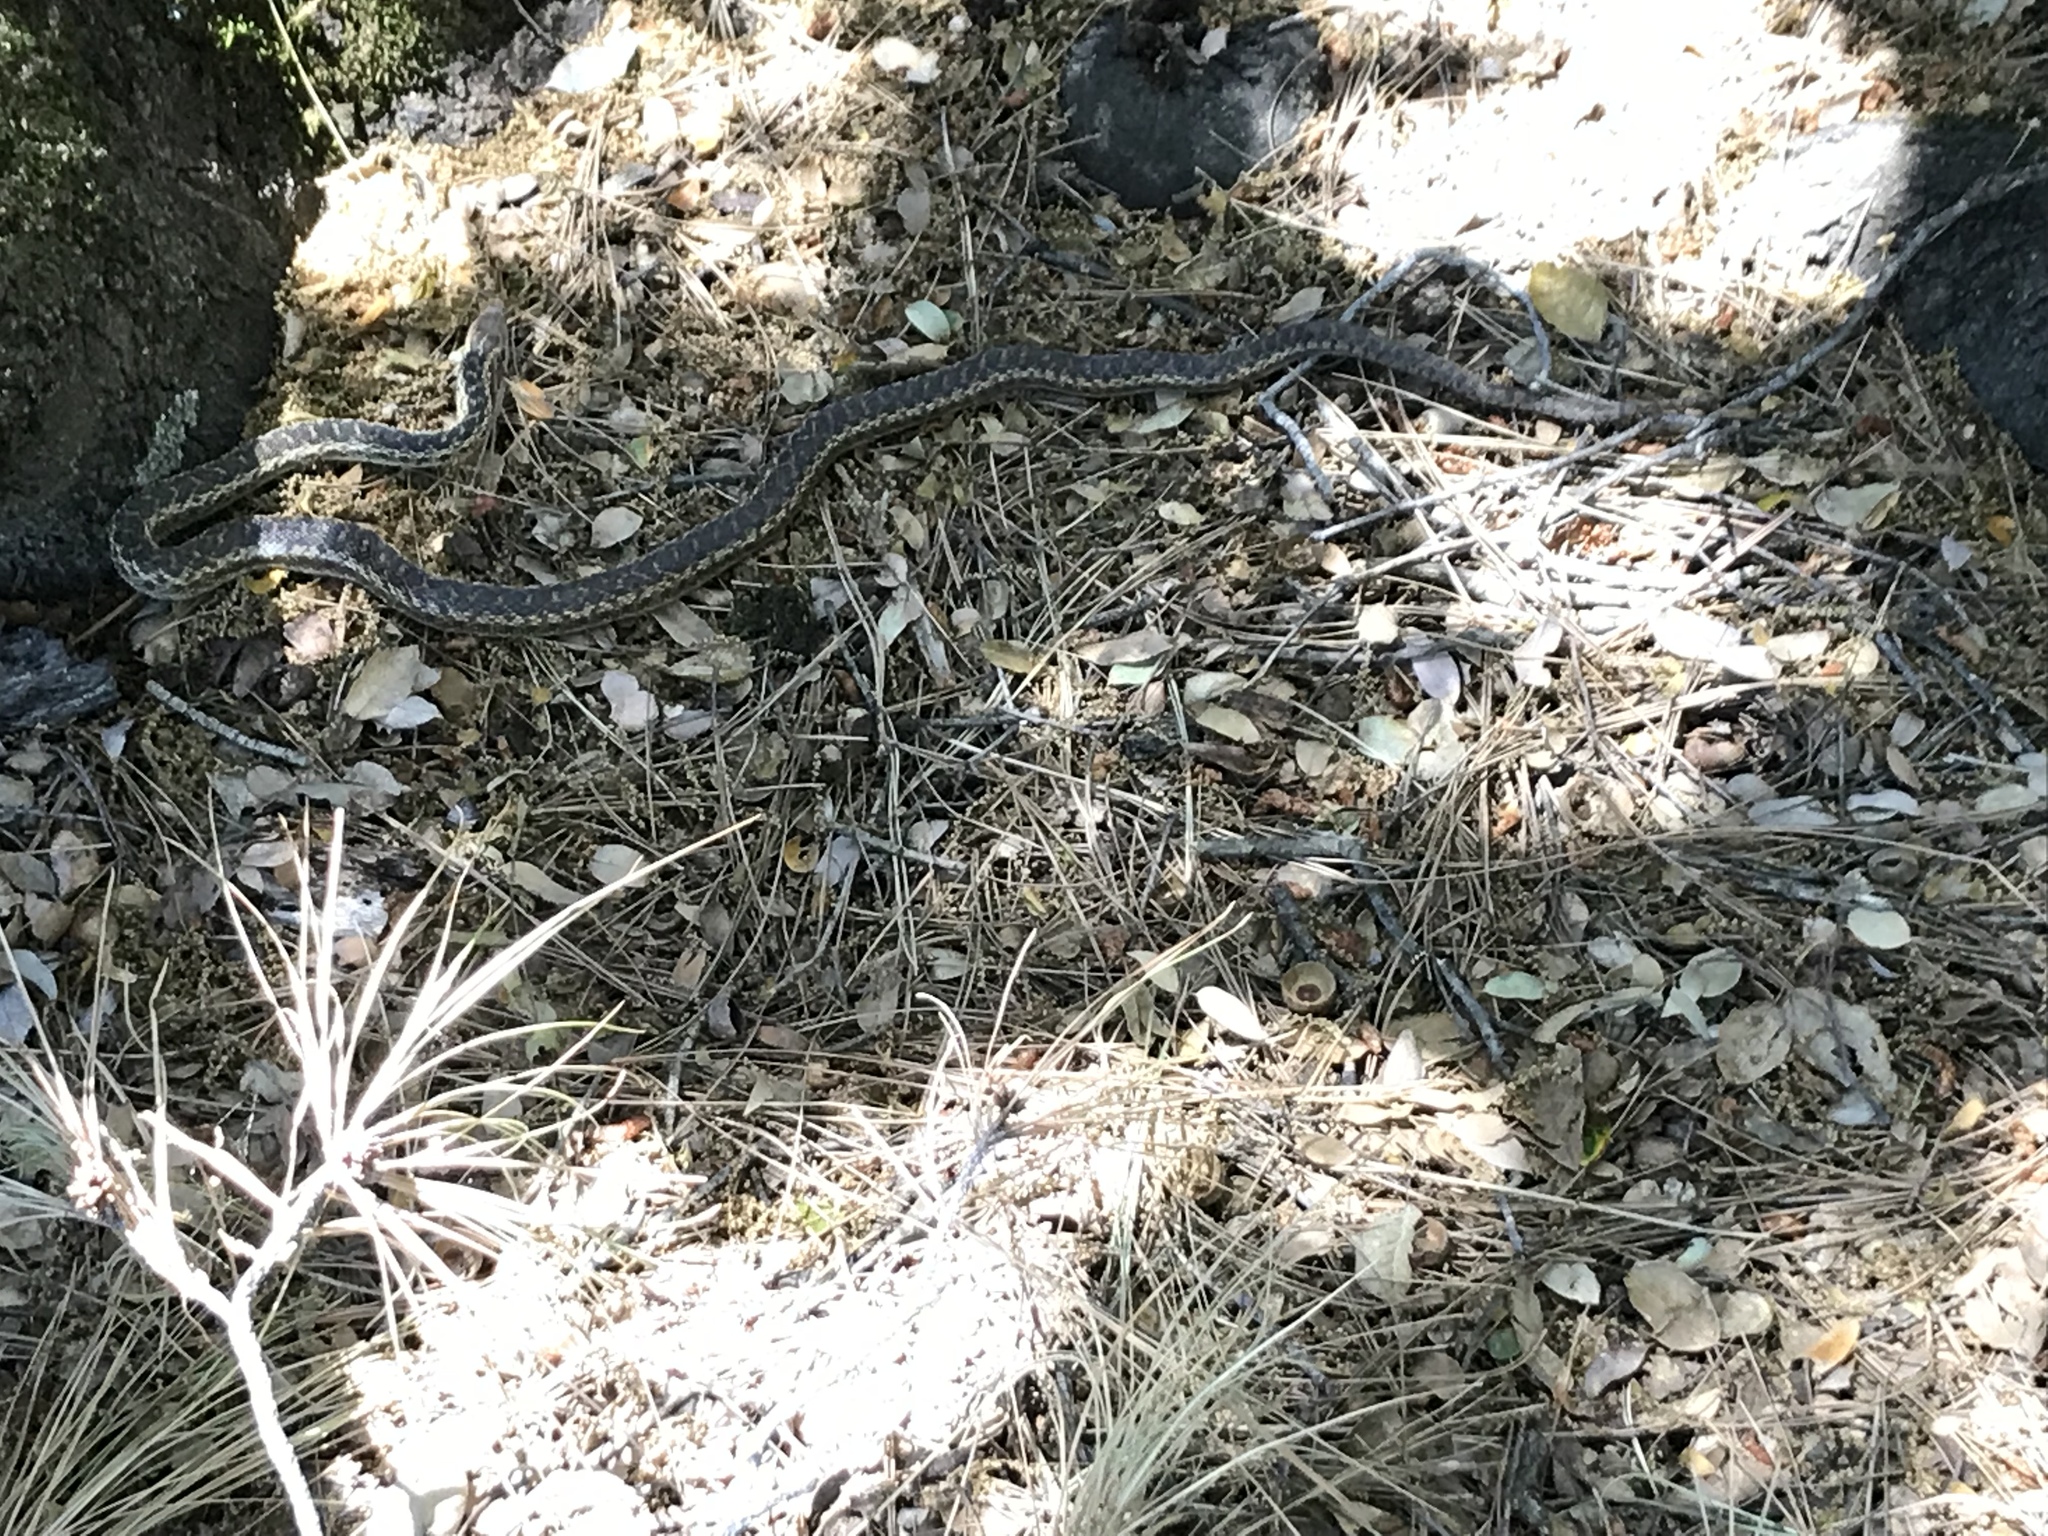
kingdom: Animalia
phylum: Chordata
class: Squamata
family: Colubridae
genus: Pituophis
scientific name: Pituophis catenifer
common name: Gopher snake
